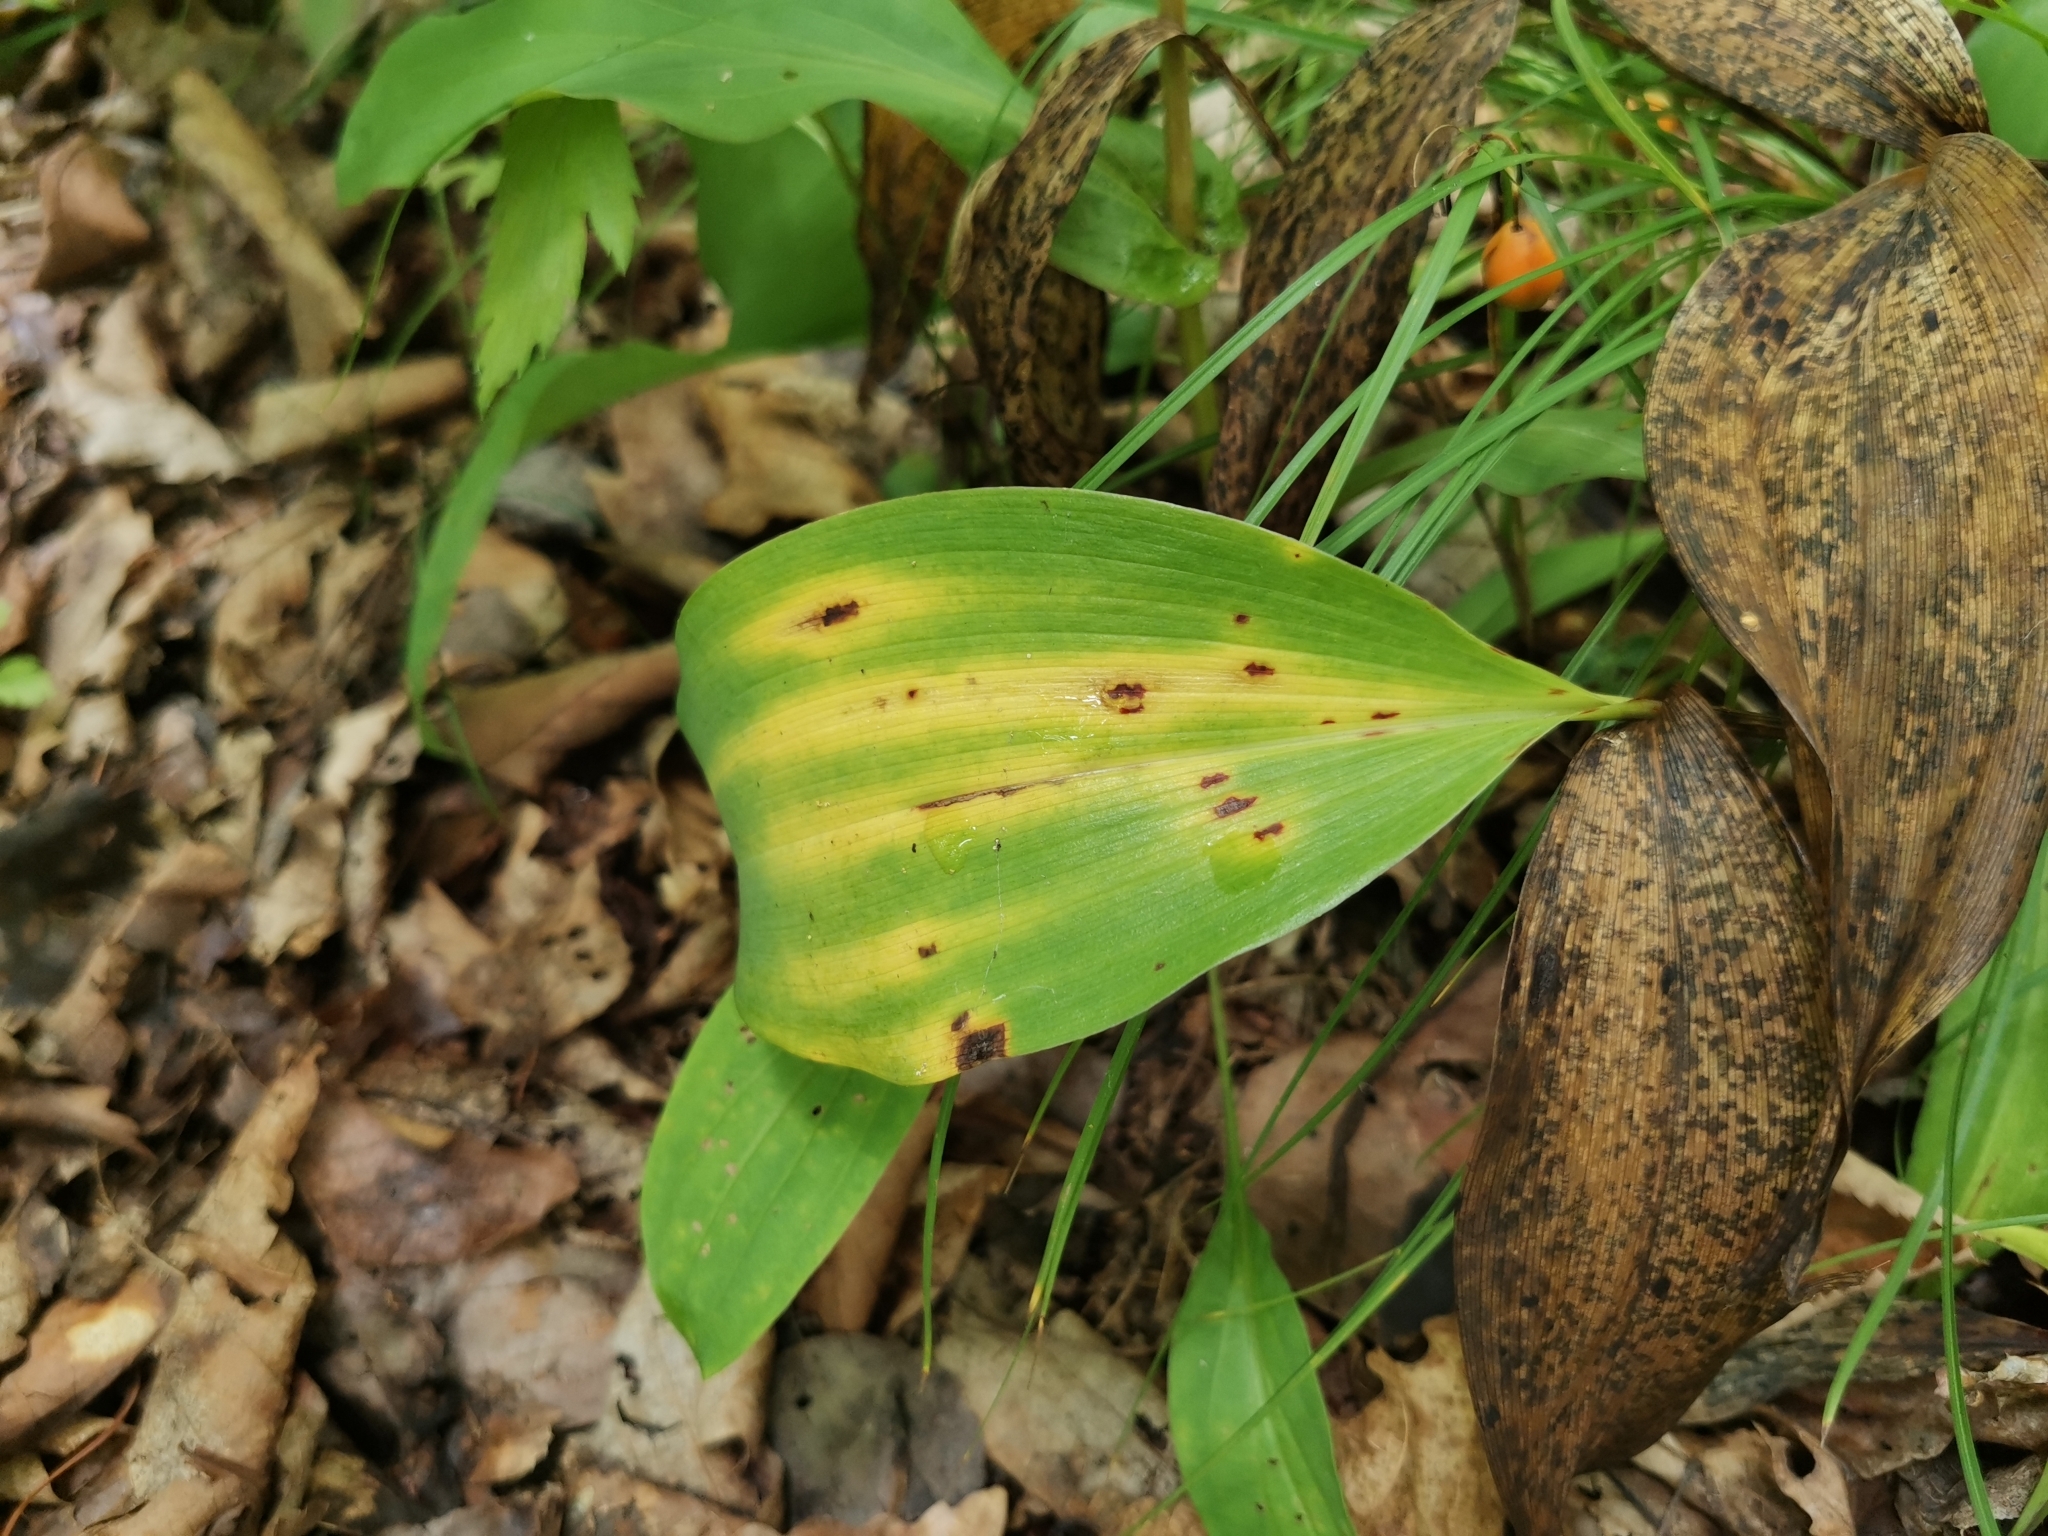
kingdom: Plantae
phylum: Tracheophyta
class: Liliopsida
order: Asparagales
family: Asparagaceae
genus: Convallaria
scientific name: Convallaria keiskei
